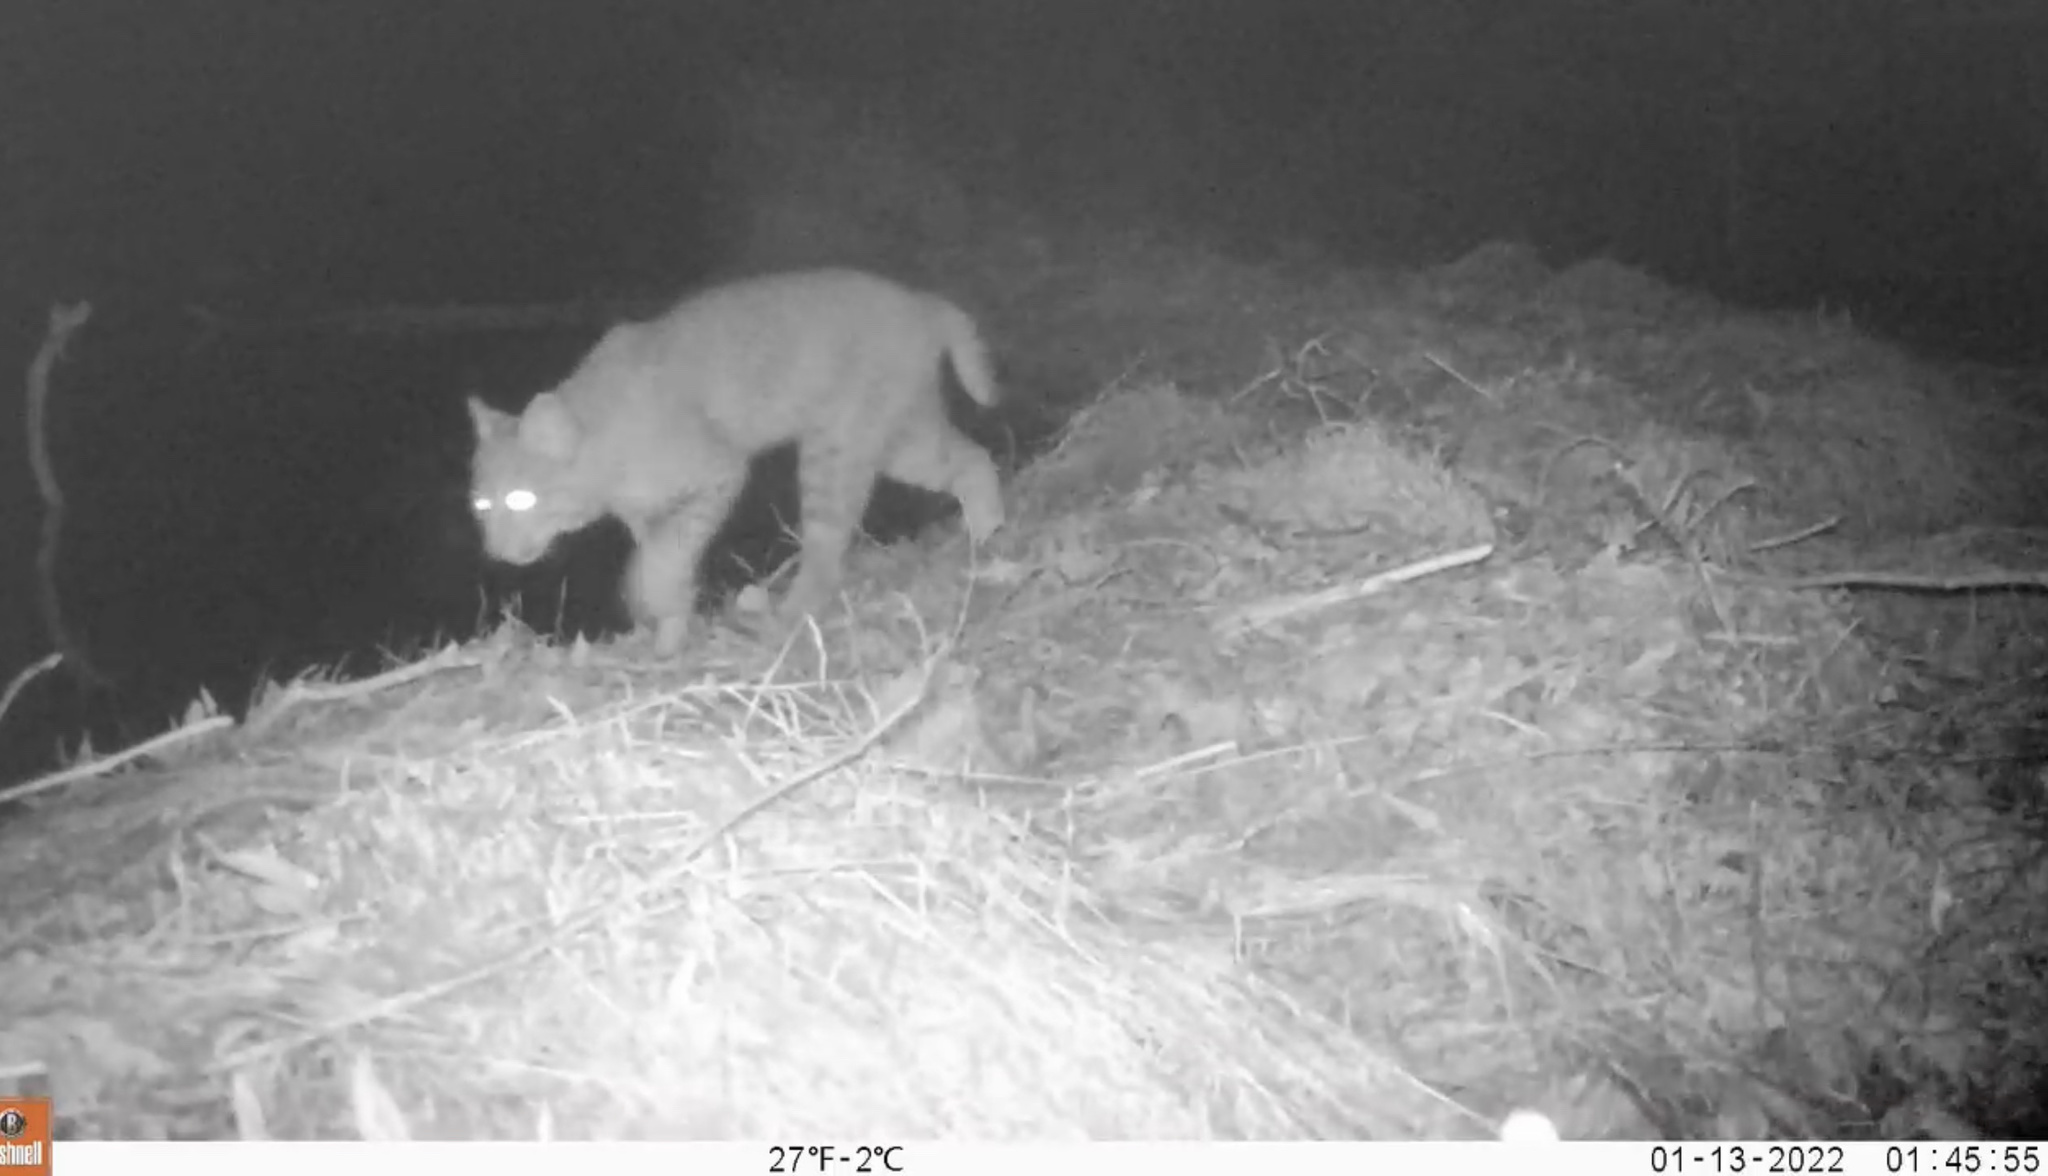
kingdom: Animalia
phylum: Chordata
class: Mammalia
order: Carnivora
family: Felidae
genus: Lynx
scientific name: Lynx rufus
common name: Bobcat
